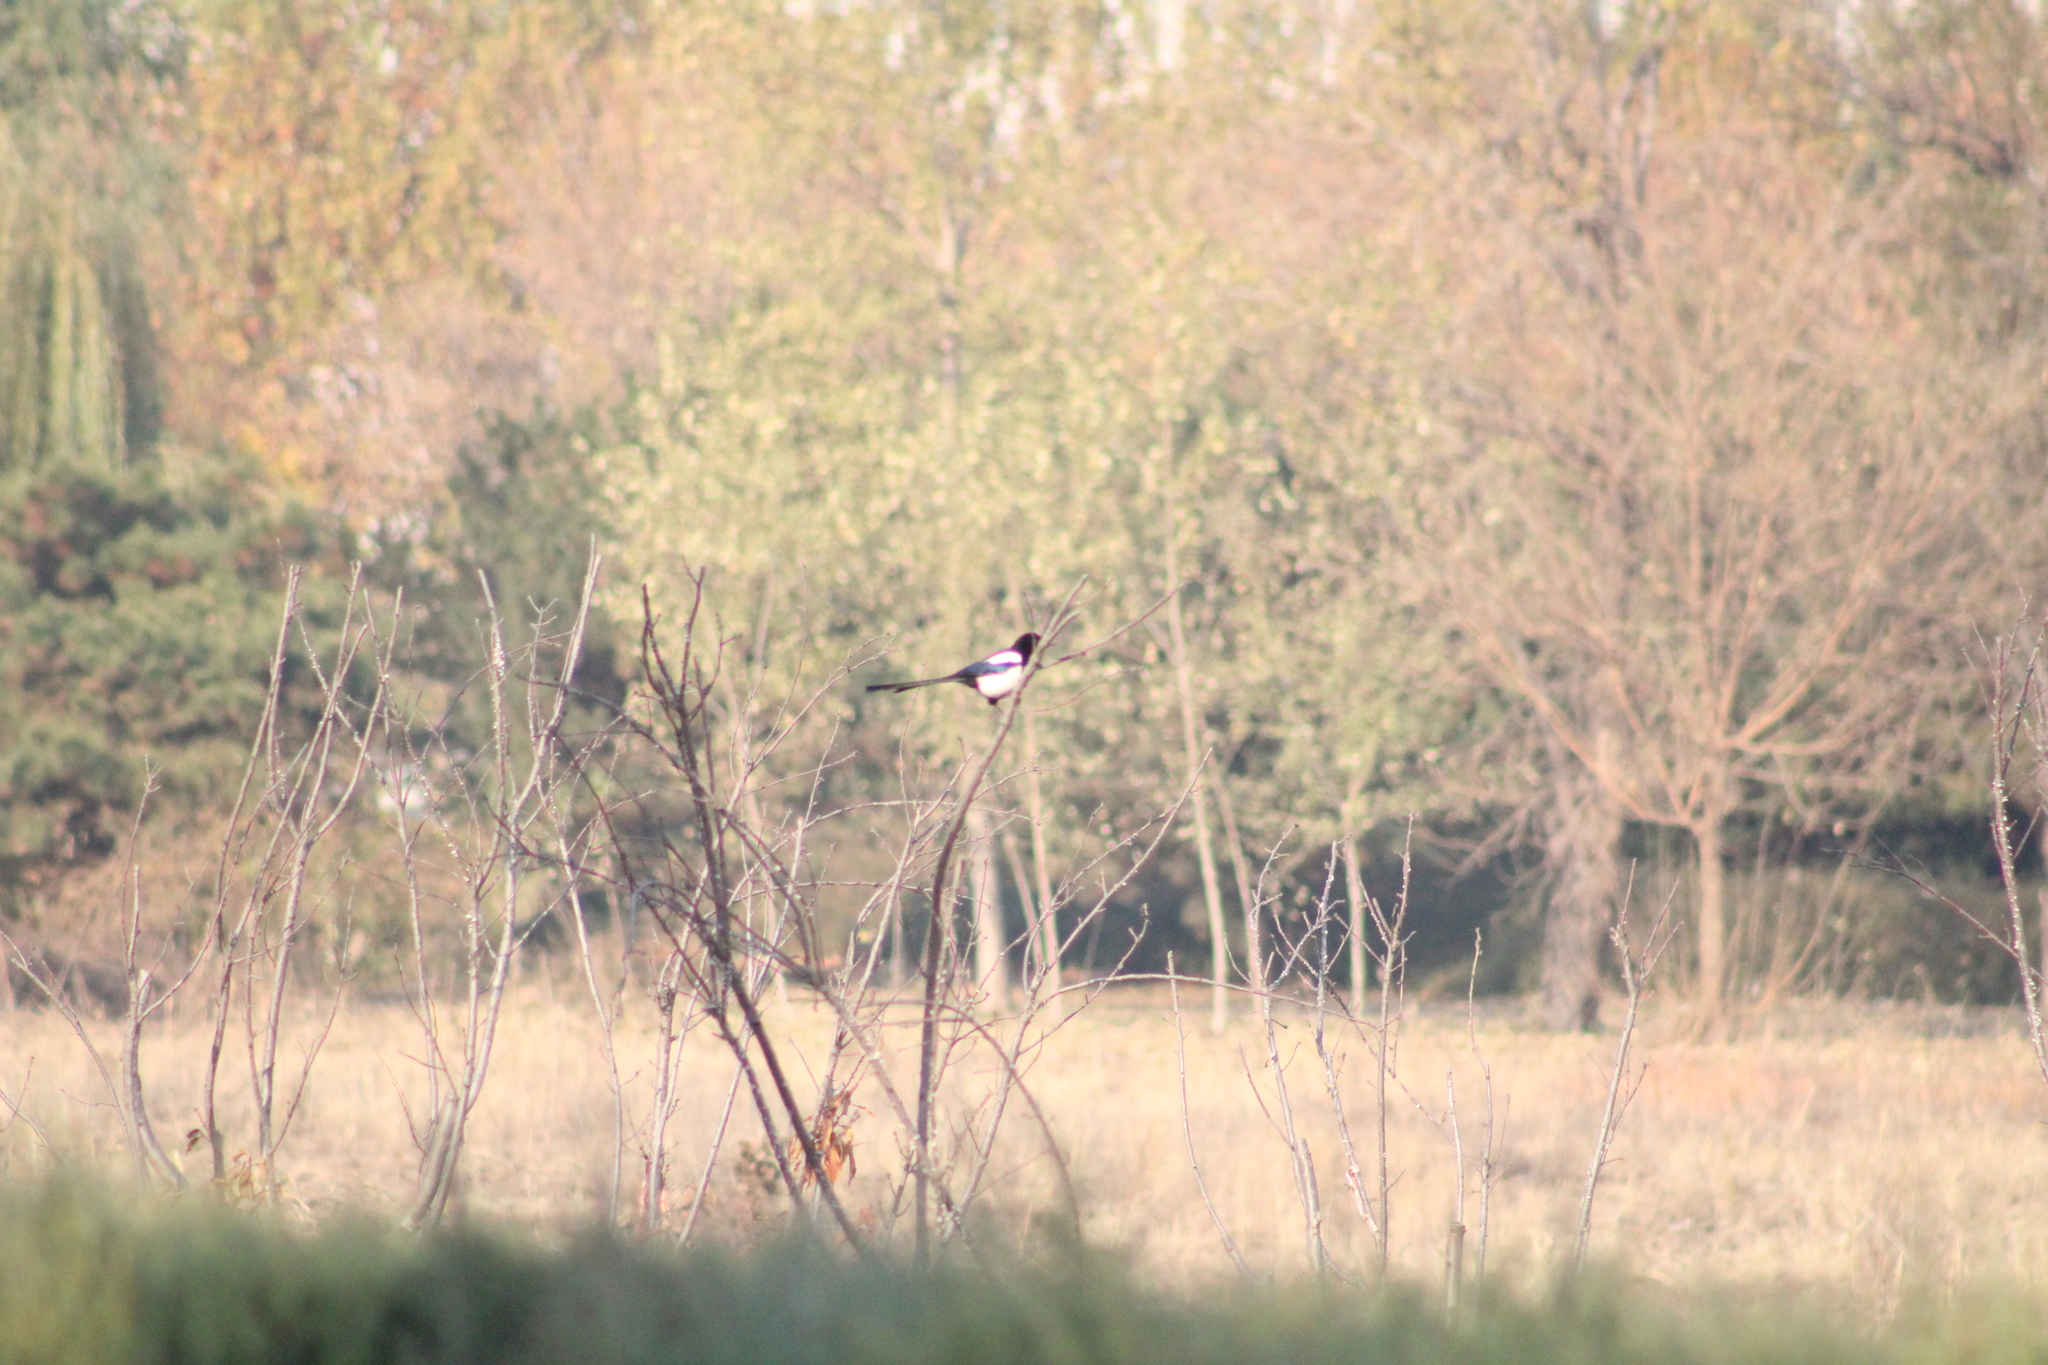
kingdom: Animalia
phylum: Chordata
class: Aves
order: Passeriformes
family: Corvidae
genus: Pica
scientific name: Pica serica
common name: Oriental magpie
